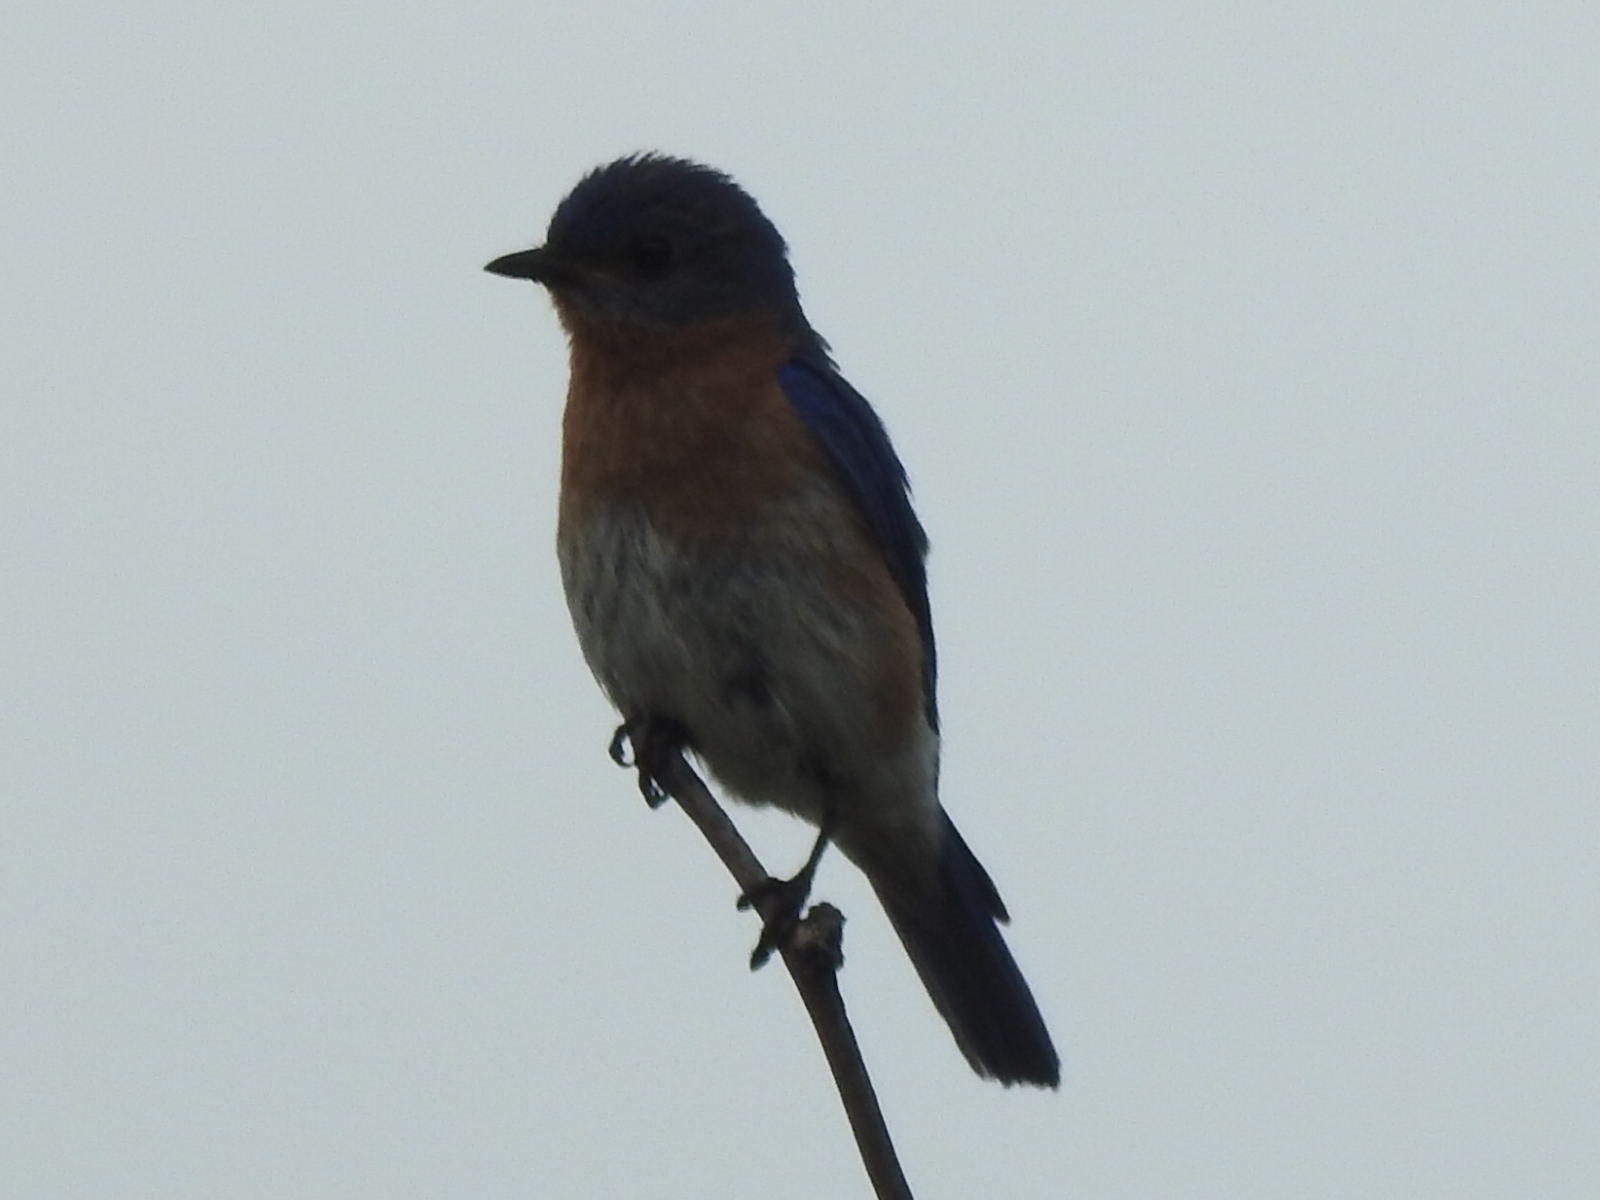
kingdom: Animalia
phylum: Chordata
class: Aves
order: Passeriformes
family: Turdidae
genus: Sialia
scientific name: Sialia sialis
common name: Eastern bluebird
